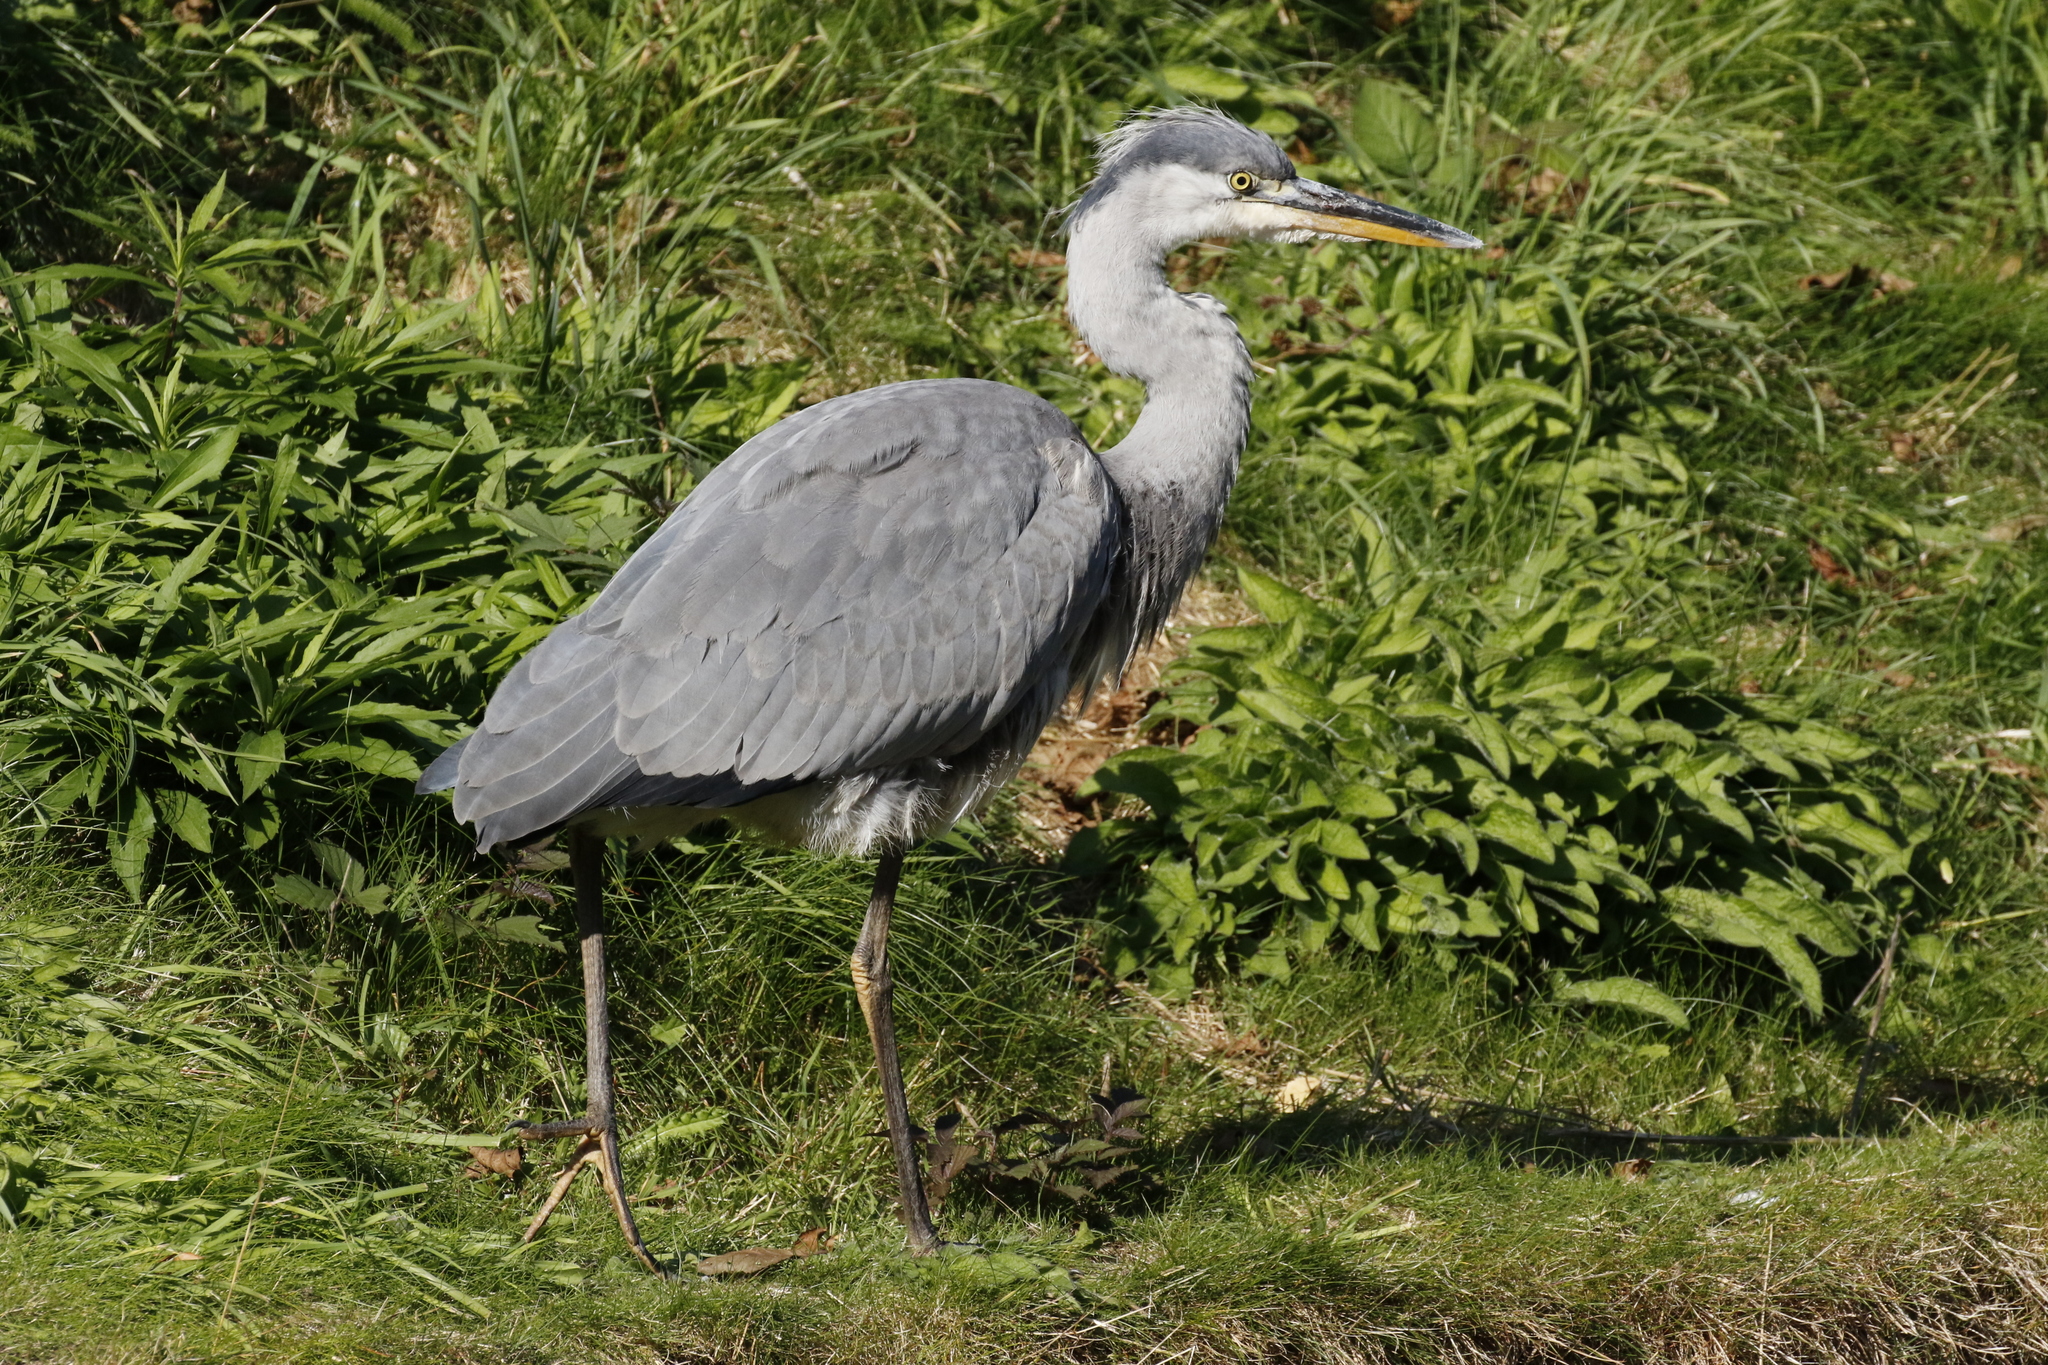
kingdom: Animalia
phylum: Chordata
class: Aves
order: Pelecaniformes
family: Ardeidae
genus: Ardea
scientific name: Ardea cinerea
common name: Grey heron
